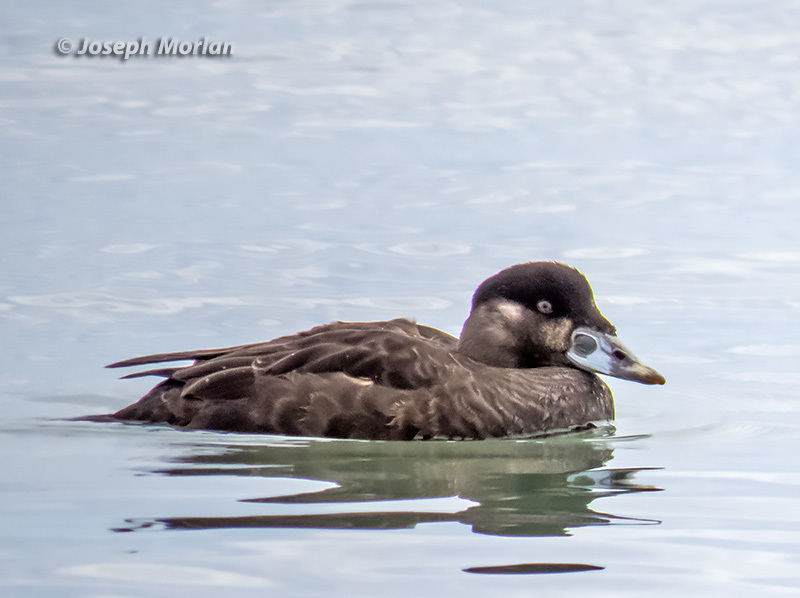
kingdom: Animalia
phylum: Chordata
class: Aves
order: Anseriformes
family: Anatidae
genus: Melanitta
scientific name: Melanitta perspicillata
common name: Surf scoter
